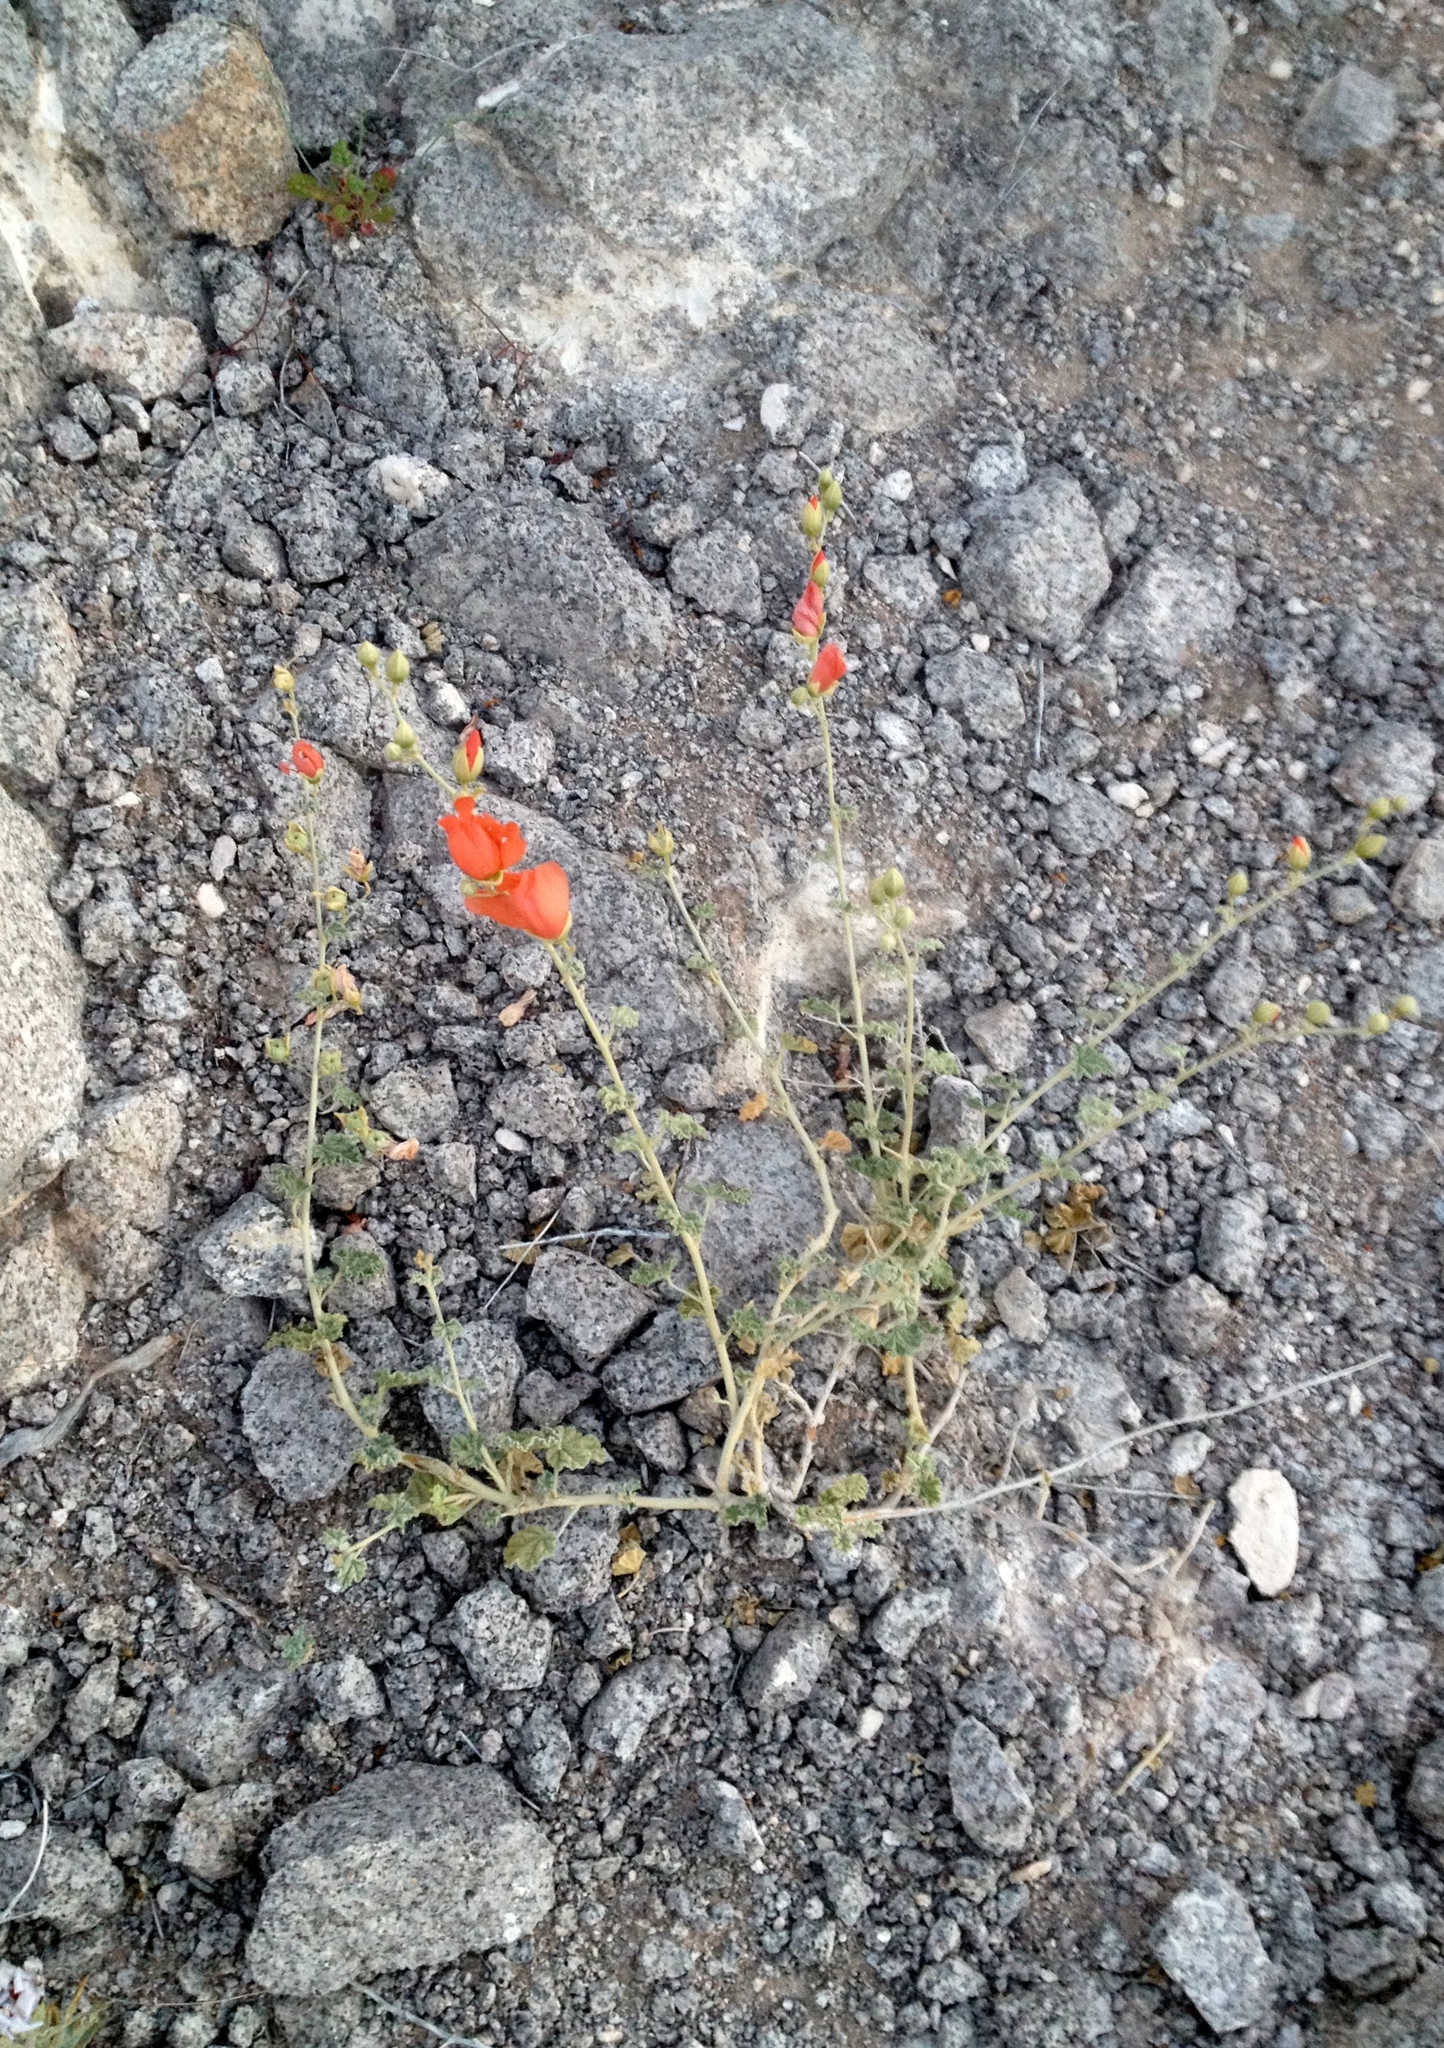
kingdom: Plantae
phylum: Tracheophyta
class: Magnoliopsida
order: Malvales
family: Malvaceae
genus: Sphaeralcea
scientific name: Sphaeralcea ambigua
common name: Apricot globe-mallow
